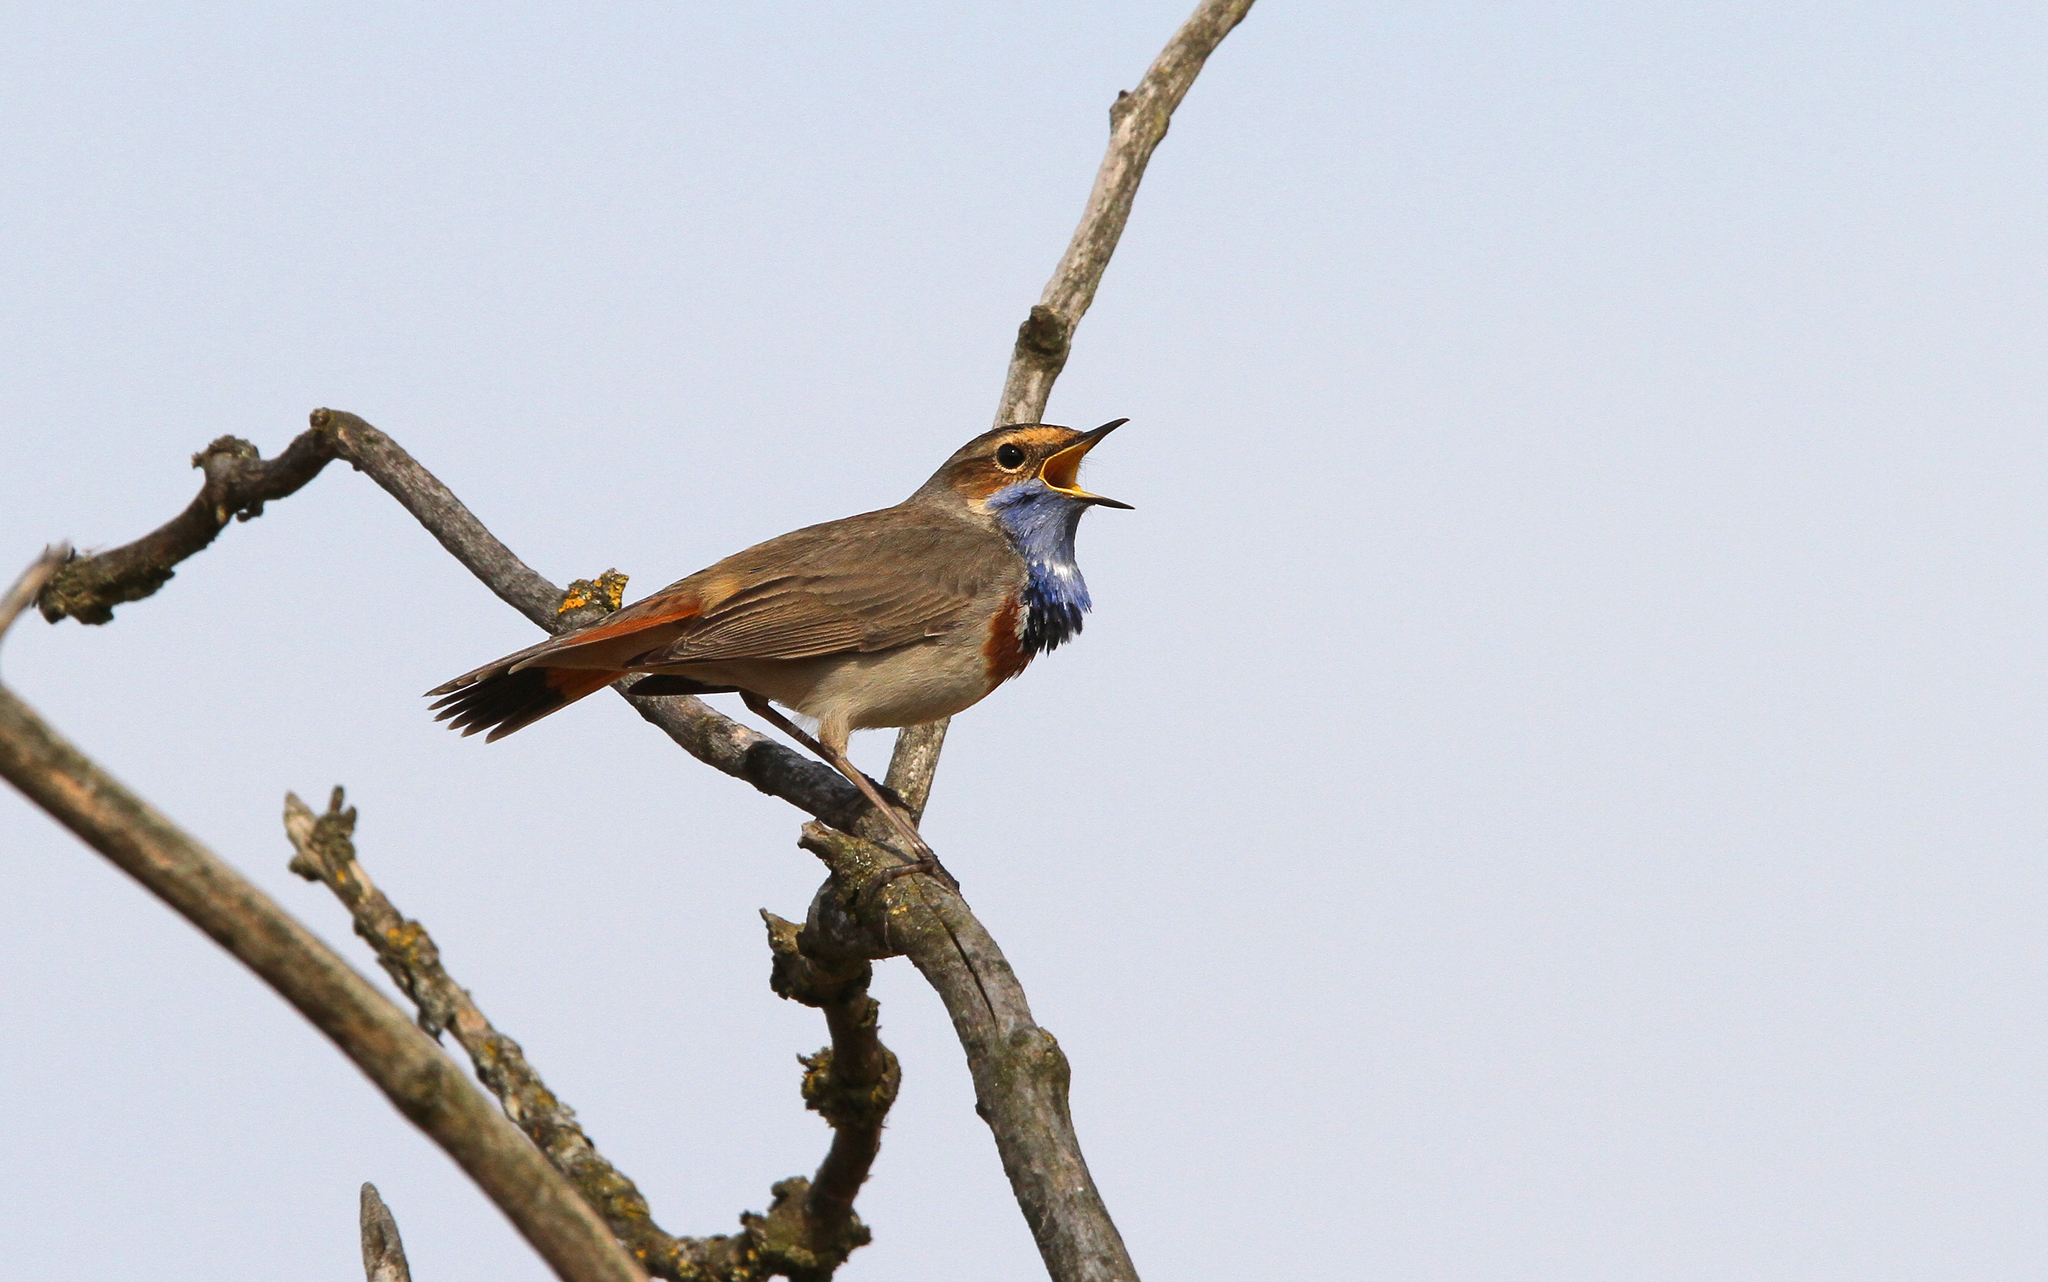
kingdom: Animalia
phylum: Chordata
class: Aves
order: Passeriformes
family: Muscicapidae
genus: Luscinia
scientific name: Luscinia svecica
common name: Bluethroat
